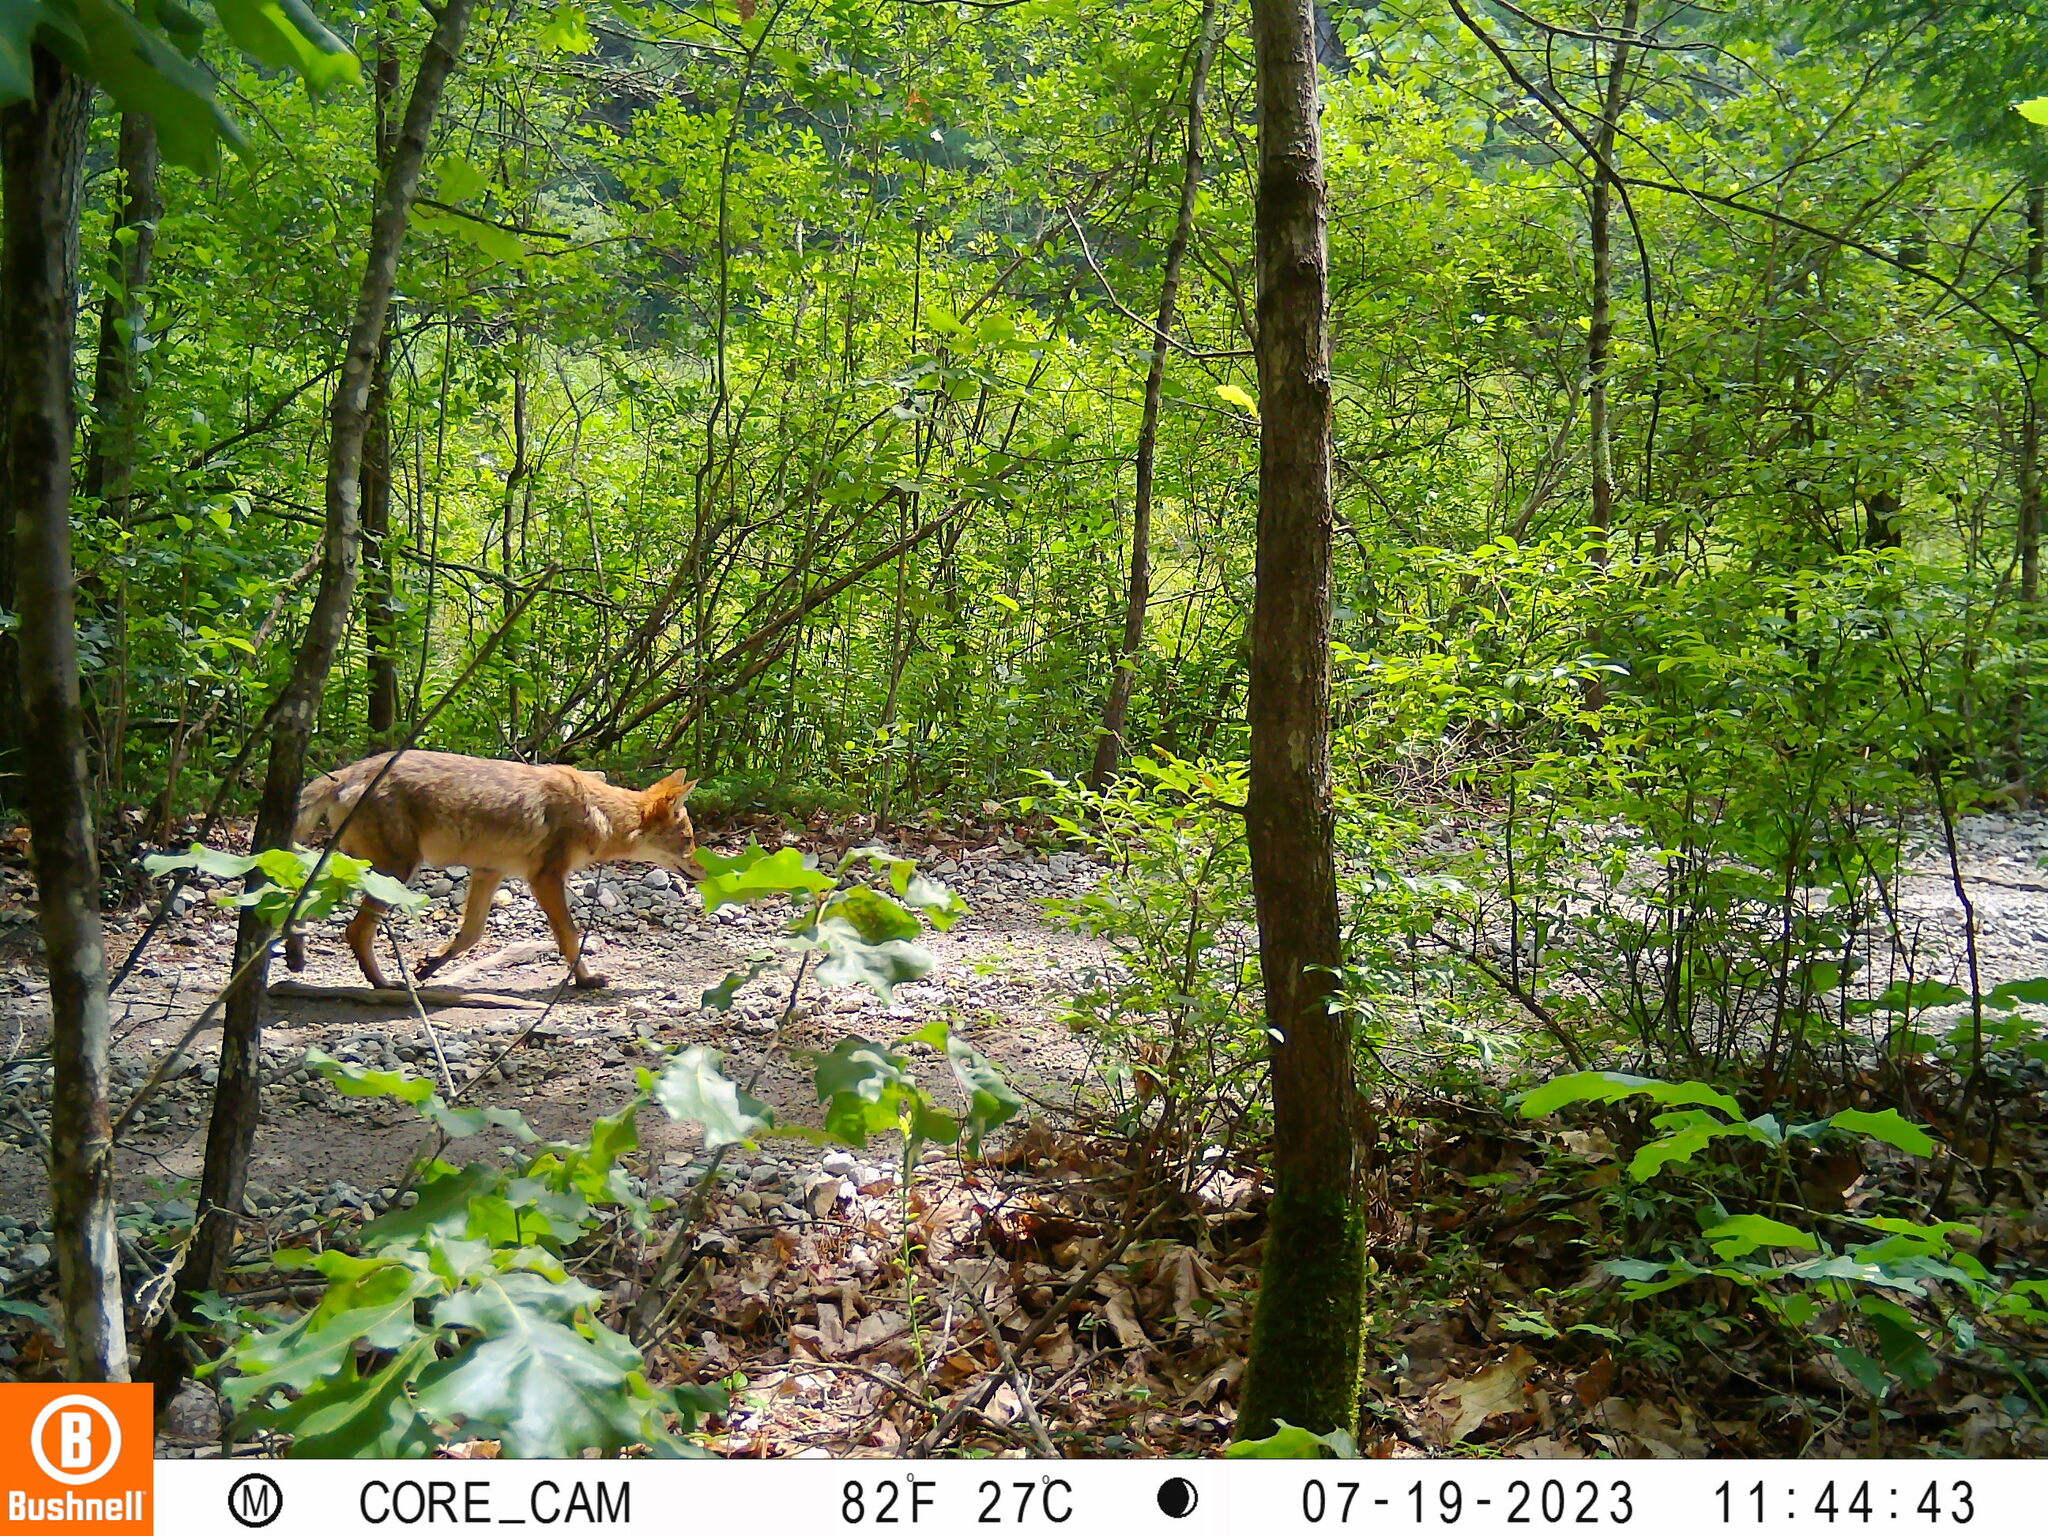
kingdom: Animalia
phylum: Chordata
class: Mammalia
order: Carnivora
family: Canidae
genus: Canis
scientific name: Canis latrans
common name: Coyote
